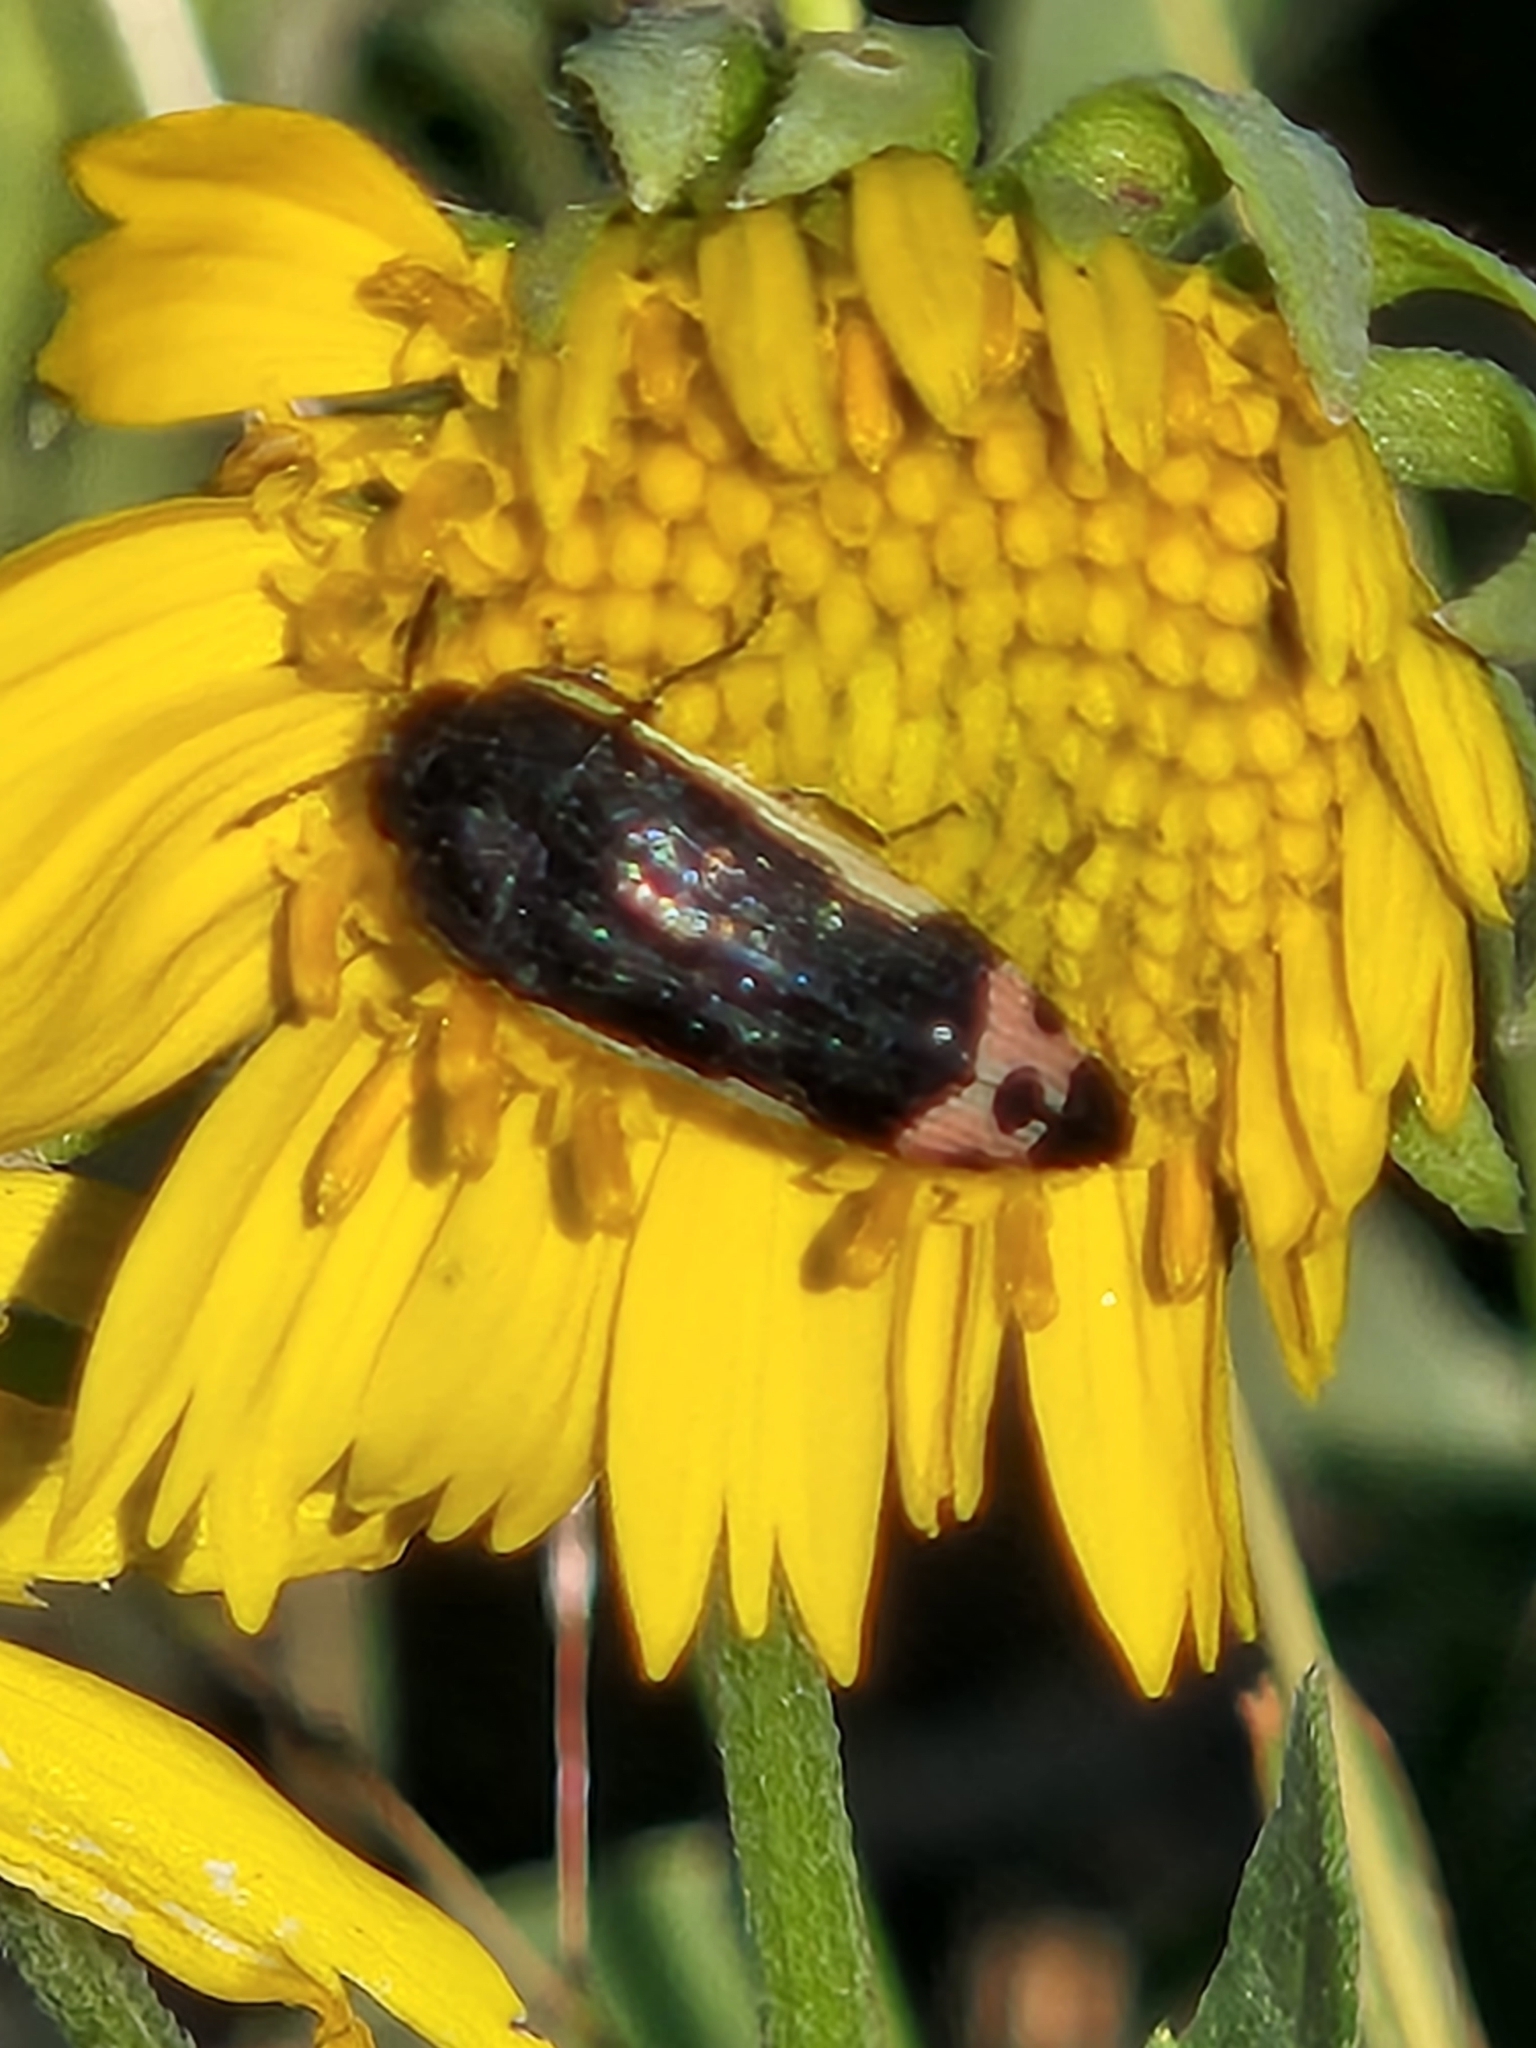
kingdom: Animalia
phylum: Arthropoda
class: Insecta
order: Coleoptera
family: Buprestidae
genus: Acmaeodera
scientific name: Acmaeodera flavomarginata
